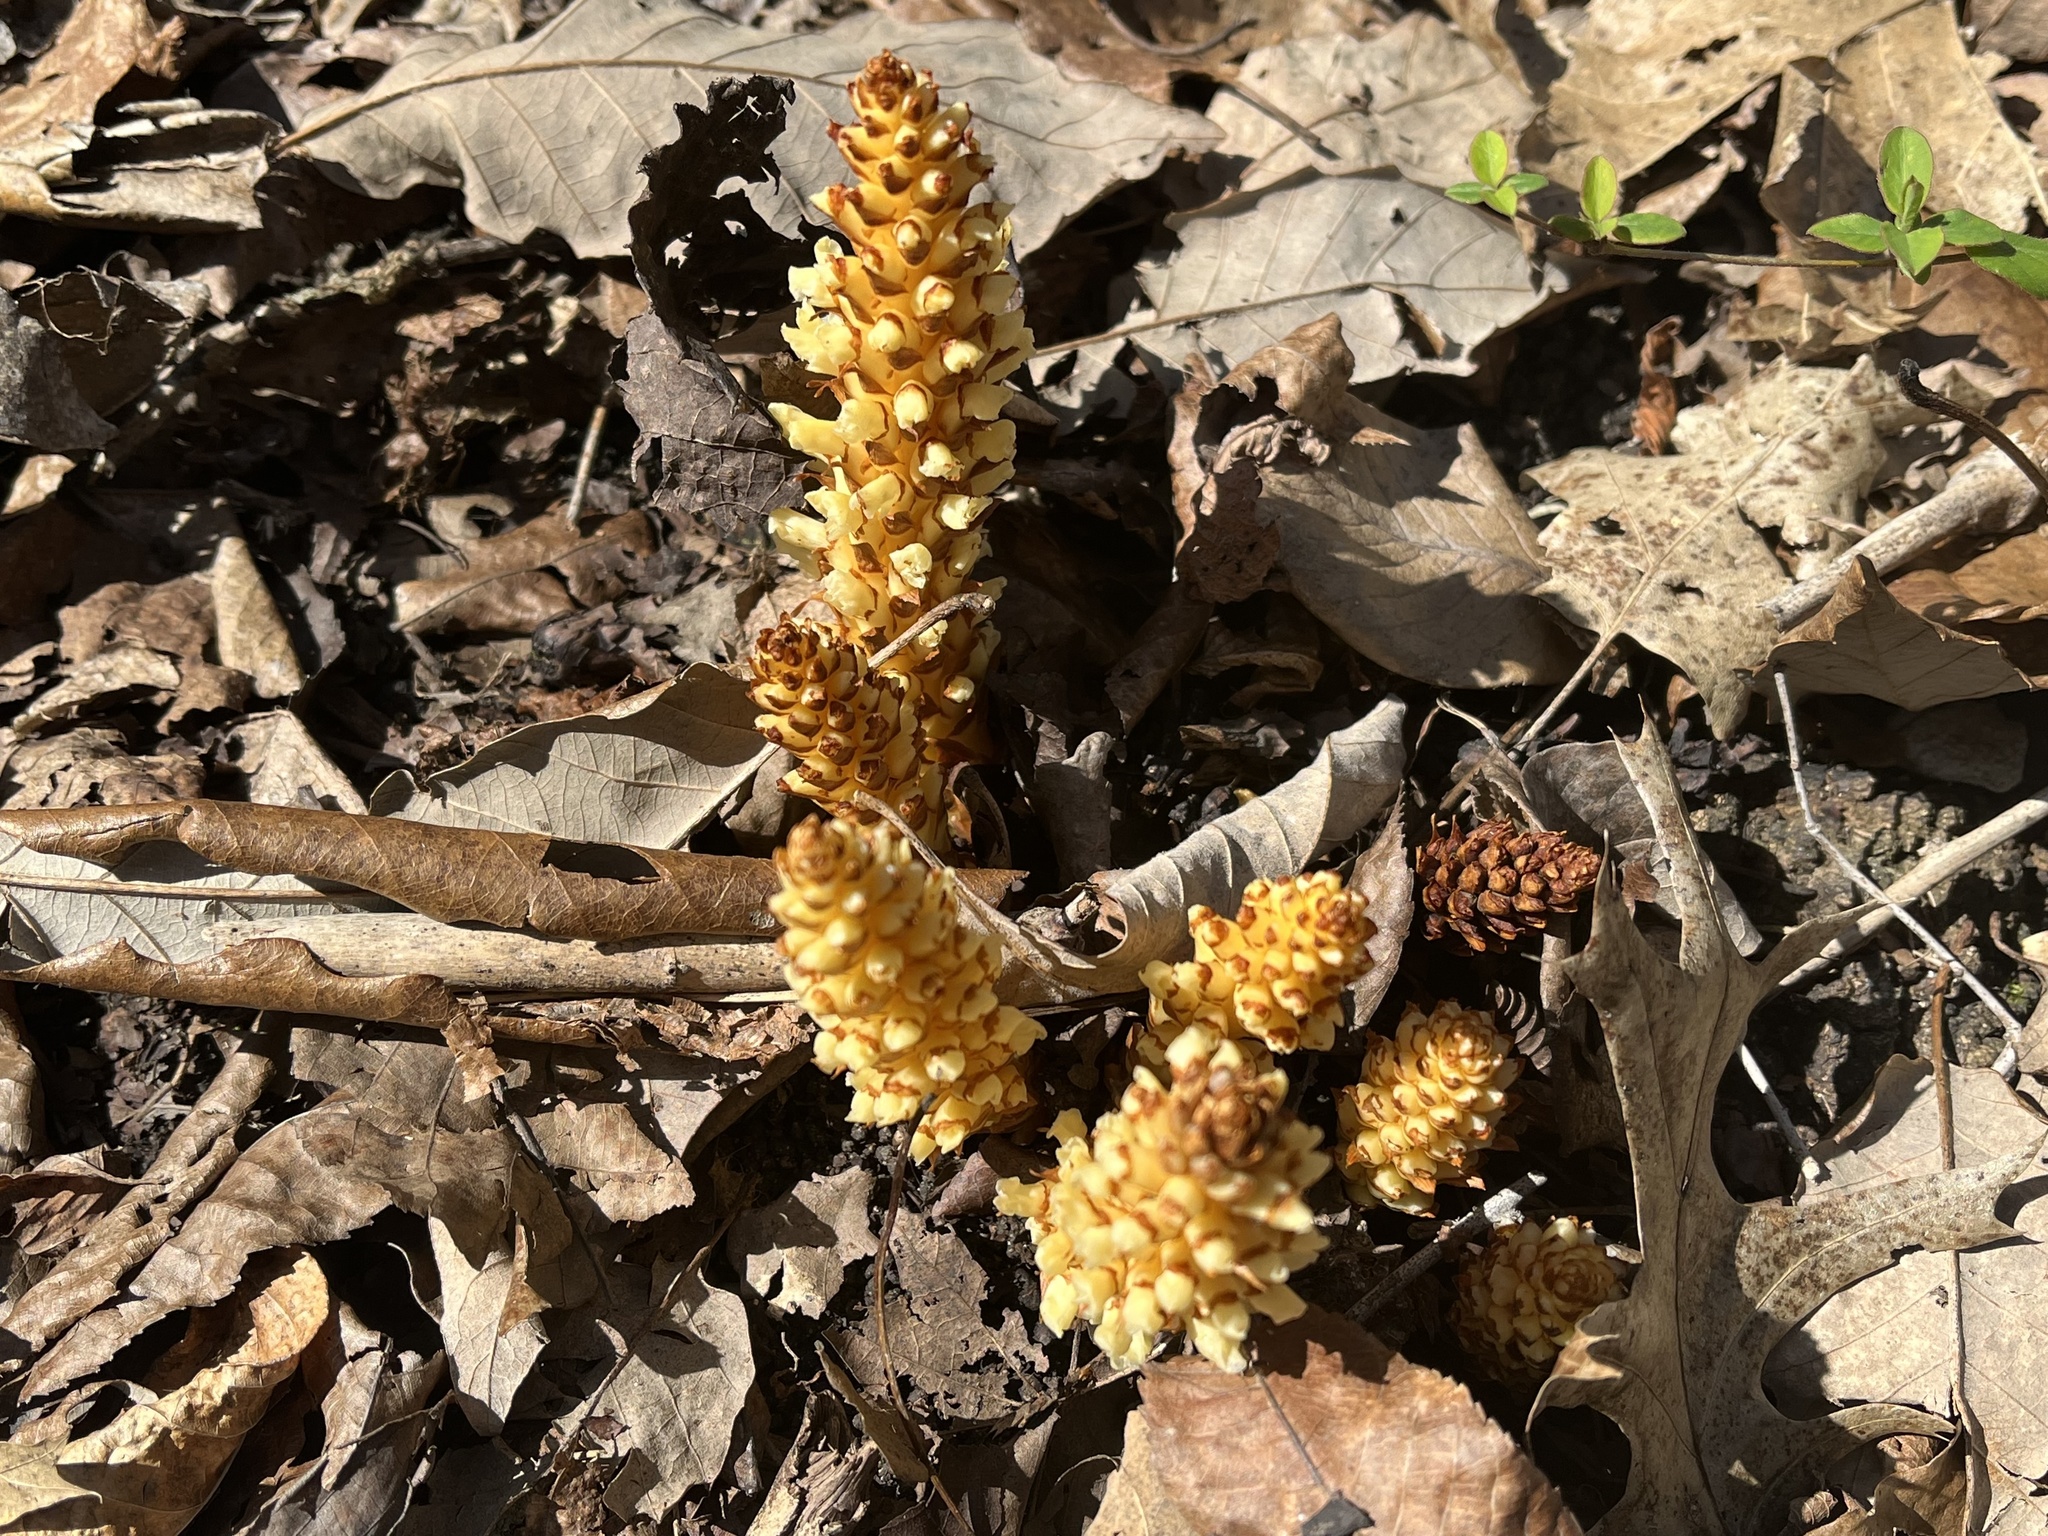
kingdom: Plantae
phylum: Tracheophyta
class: Magnoliopsida
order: Lamiales
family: Orobanchaceae
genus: Conopholis
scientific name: Conopholis americana
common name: American cancer-root
